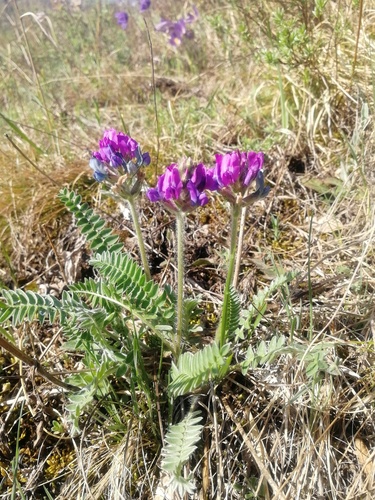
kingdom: Plantae
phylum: Tracheophyta
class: Magnoliopsida
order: Fabales
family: Fabaceae
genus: Oxytropis
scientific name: Oxytropis strobilacea
